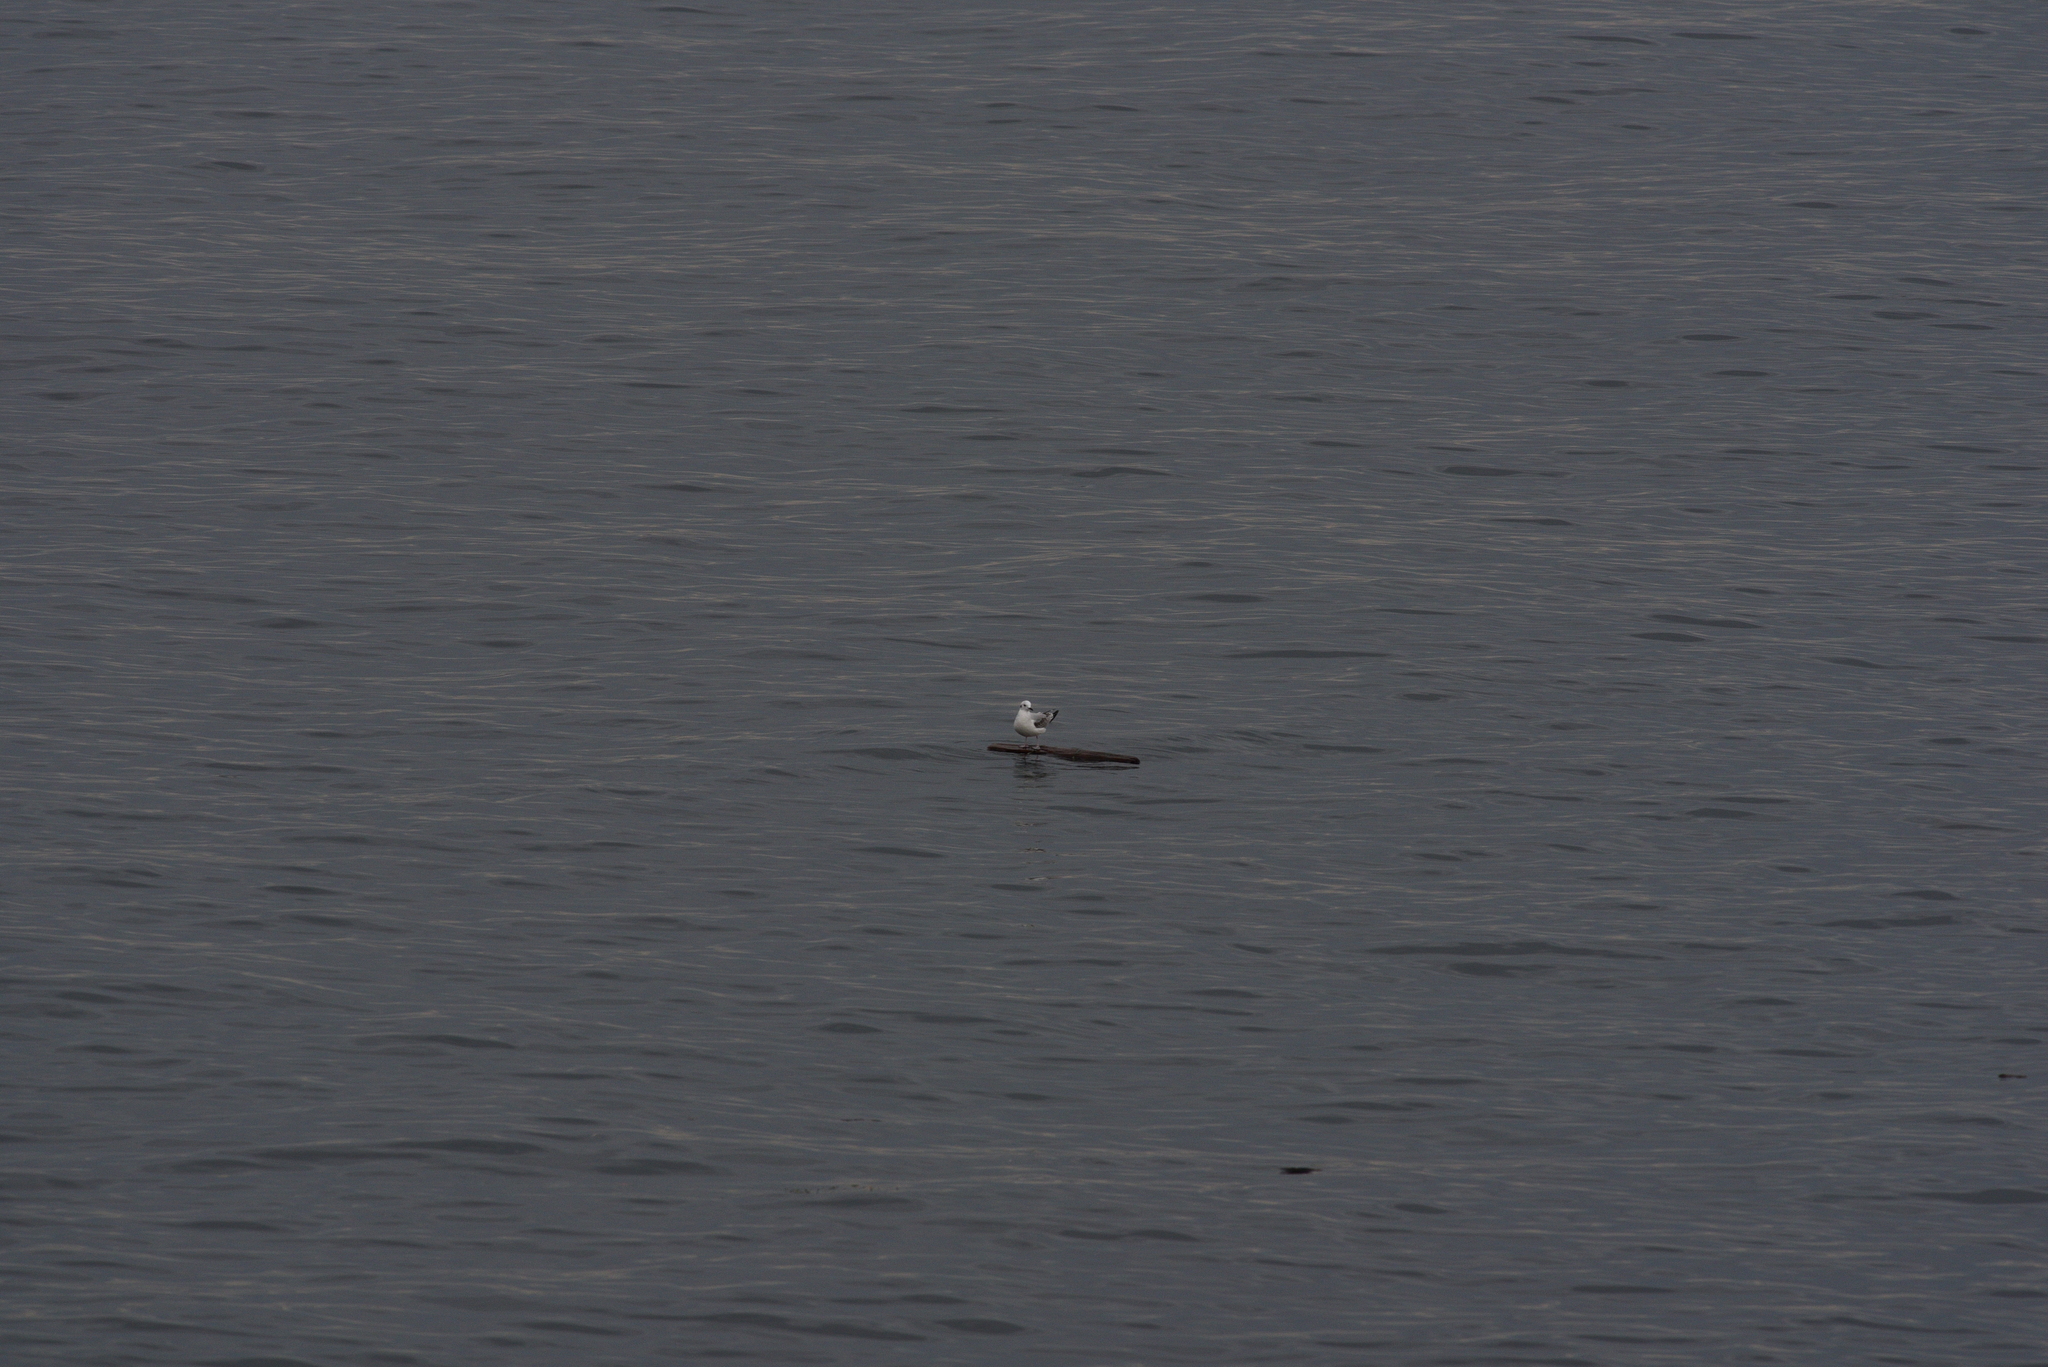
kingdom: Animalia
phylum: Chordata
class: Aves
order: Charadriiformes
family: Laridae
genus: Chroicocephalus
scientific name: Chroicocephalus philadelphia
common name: Bonaparte's gull
